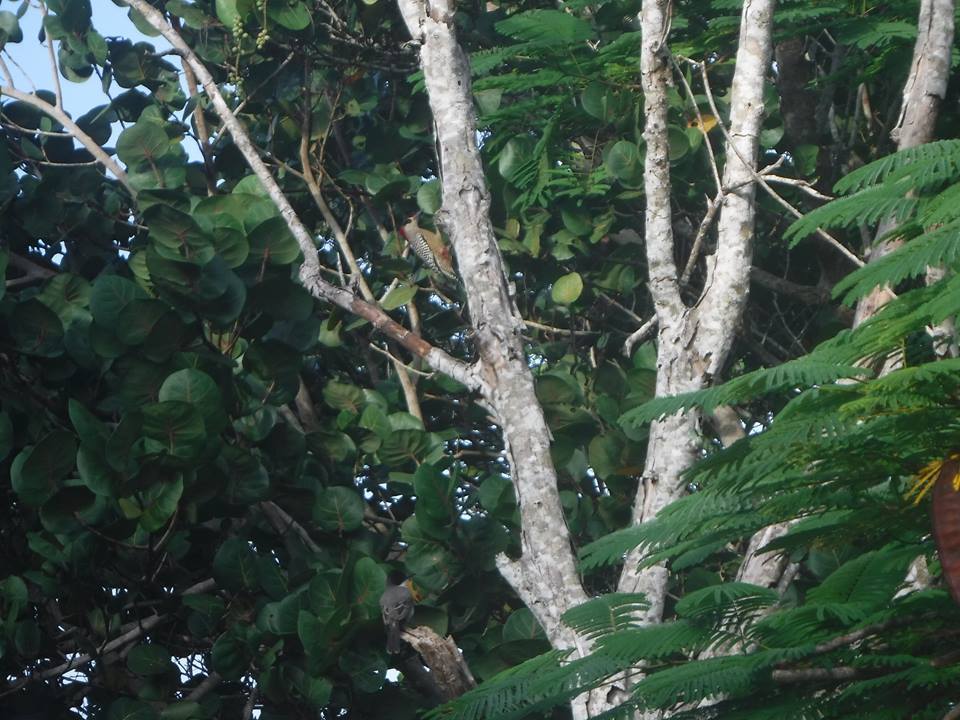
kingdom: Animalia
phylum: Chordata
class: Aves
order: Piciformes
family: Picidae
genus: Melanerpes
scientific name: Melanerpes superciliaris
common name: West indian woodpecker
